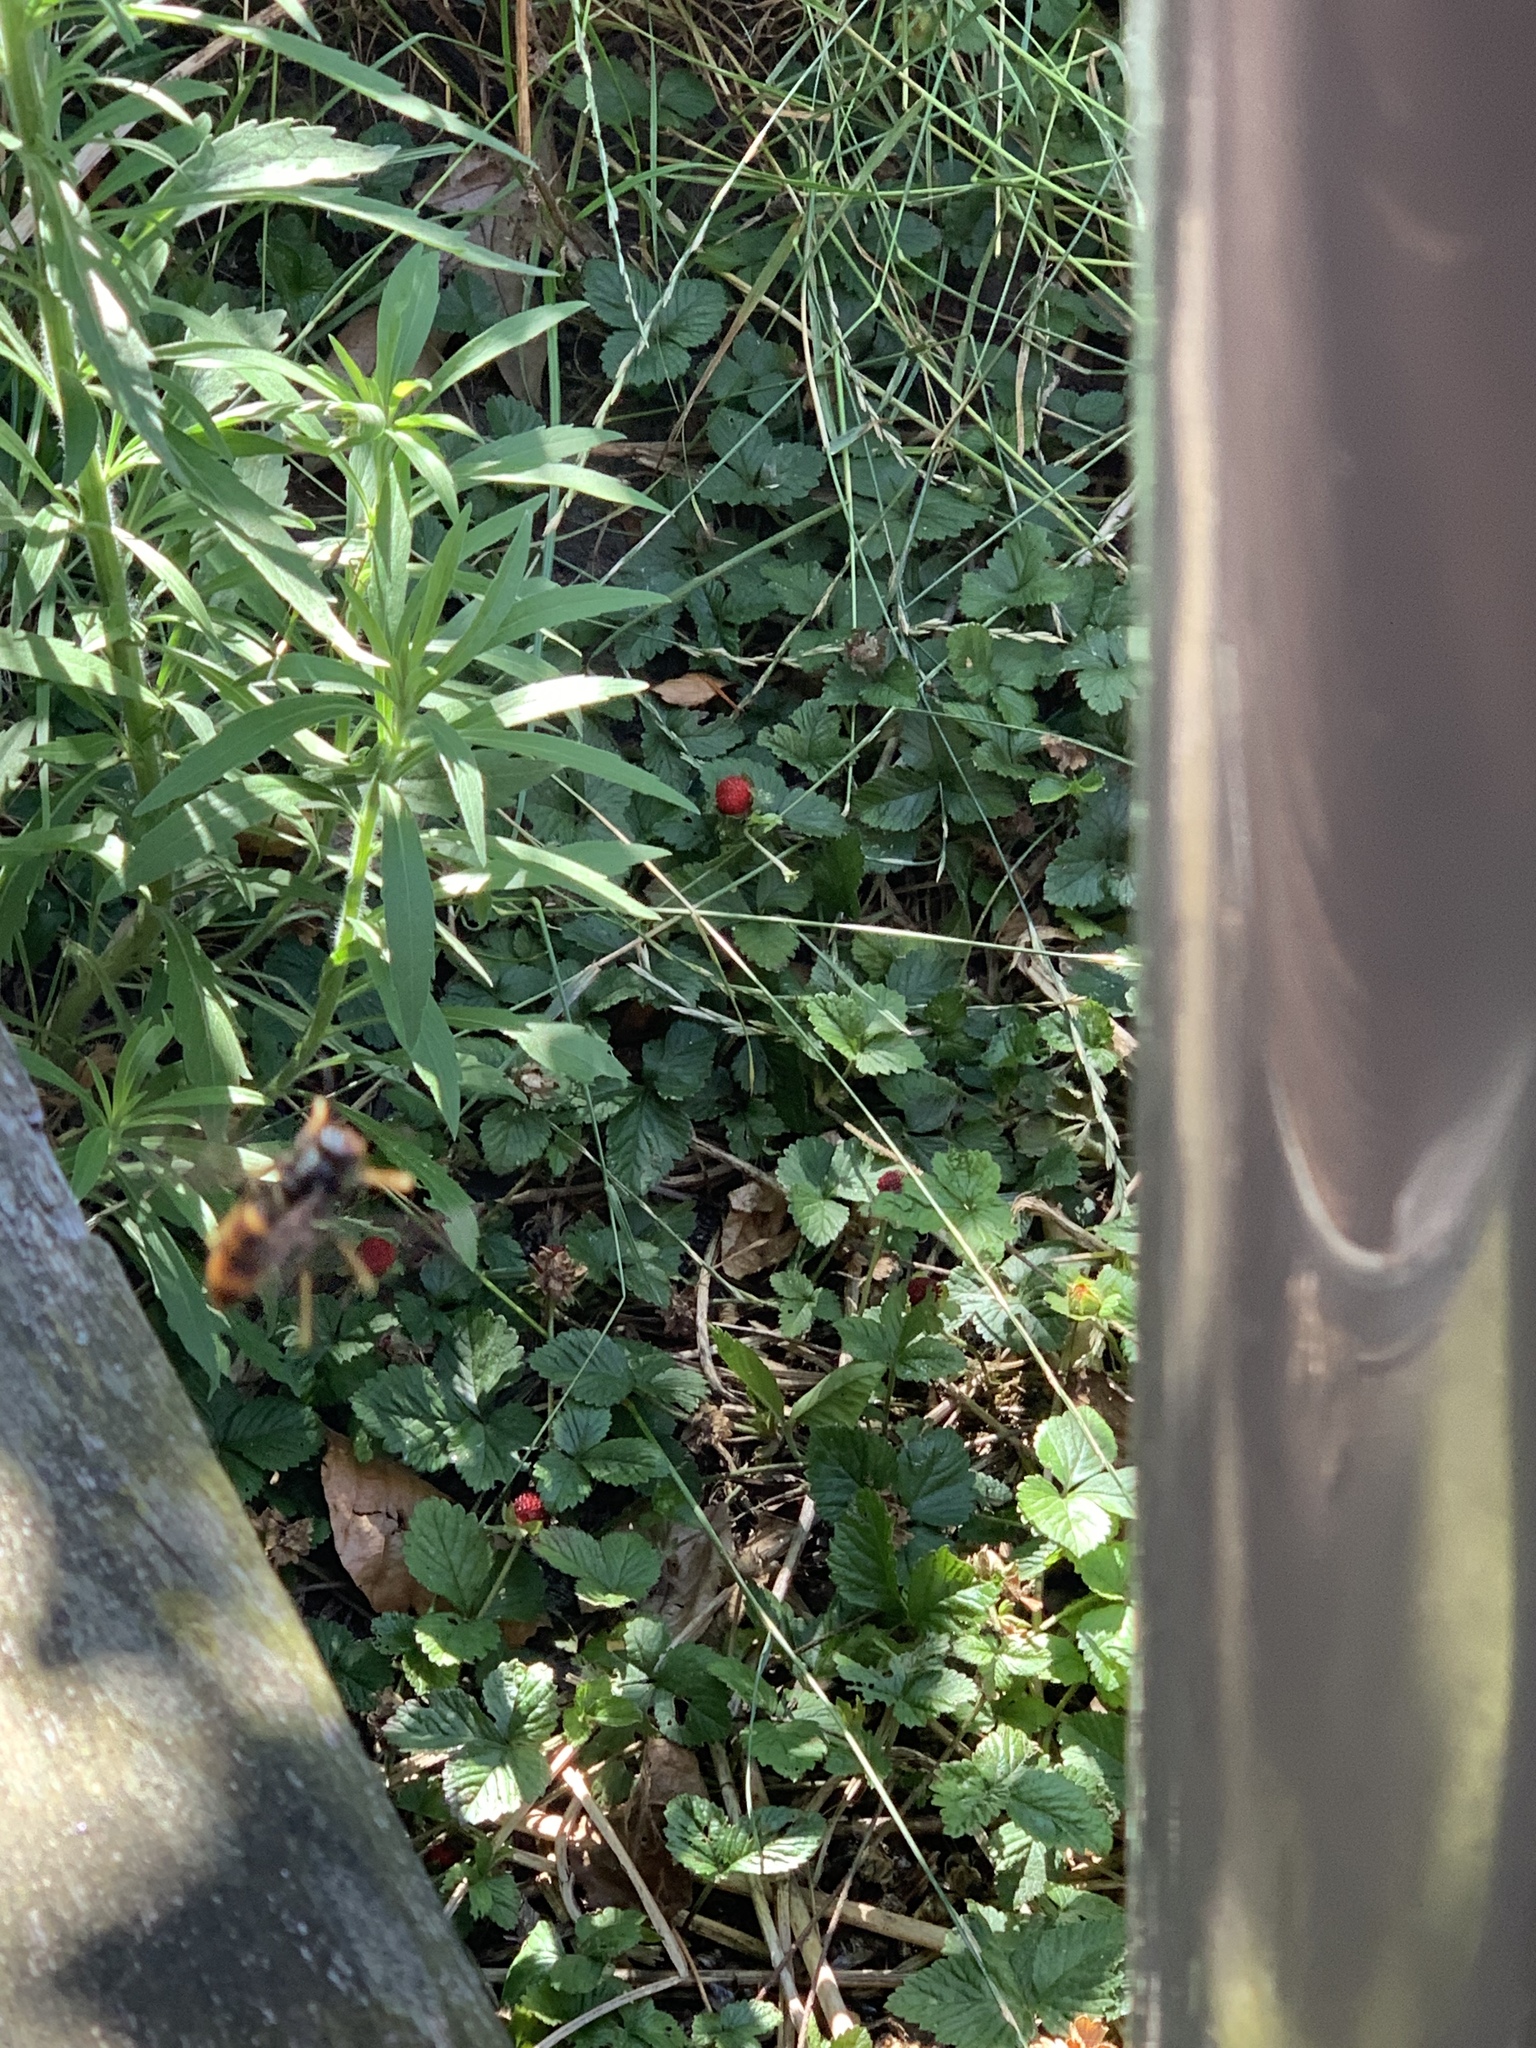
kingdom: Animalia
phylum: Arthropoda
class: Insecta
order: Hymenoptera
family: Vespidae
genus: Vespa
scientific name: Vespa velutina
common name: Asian hornet
